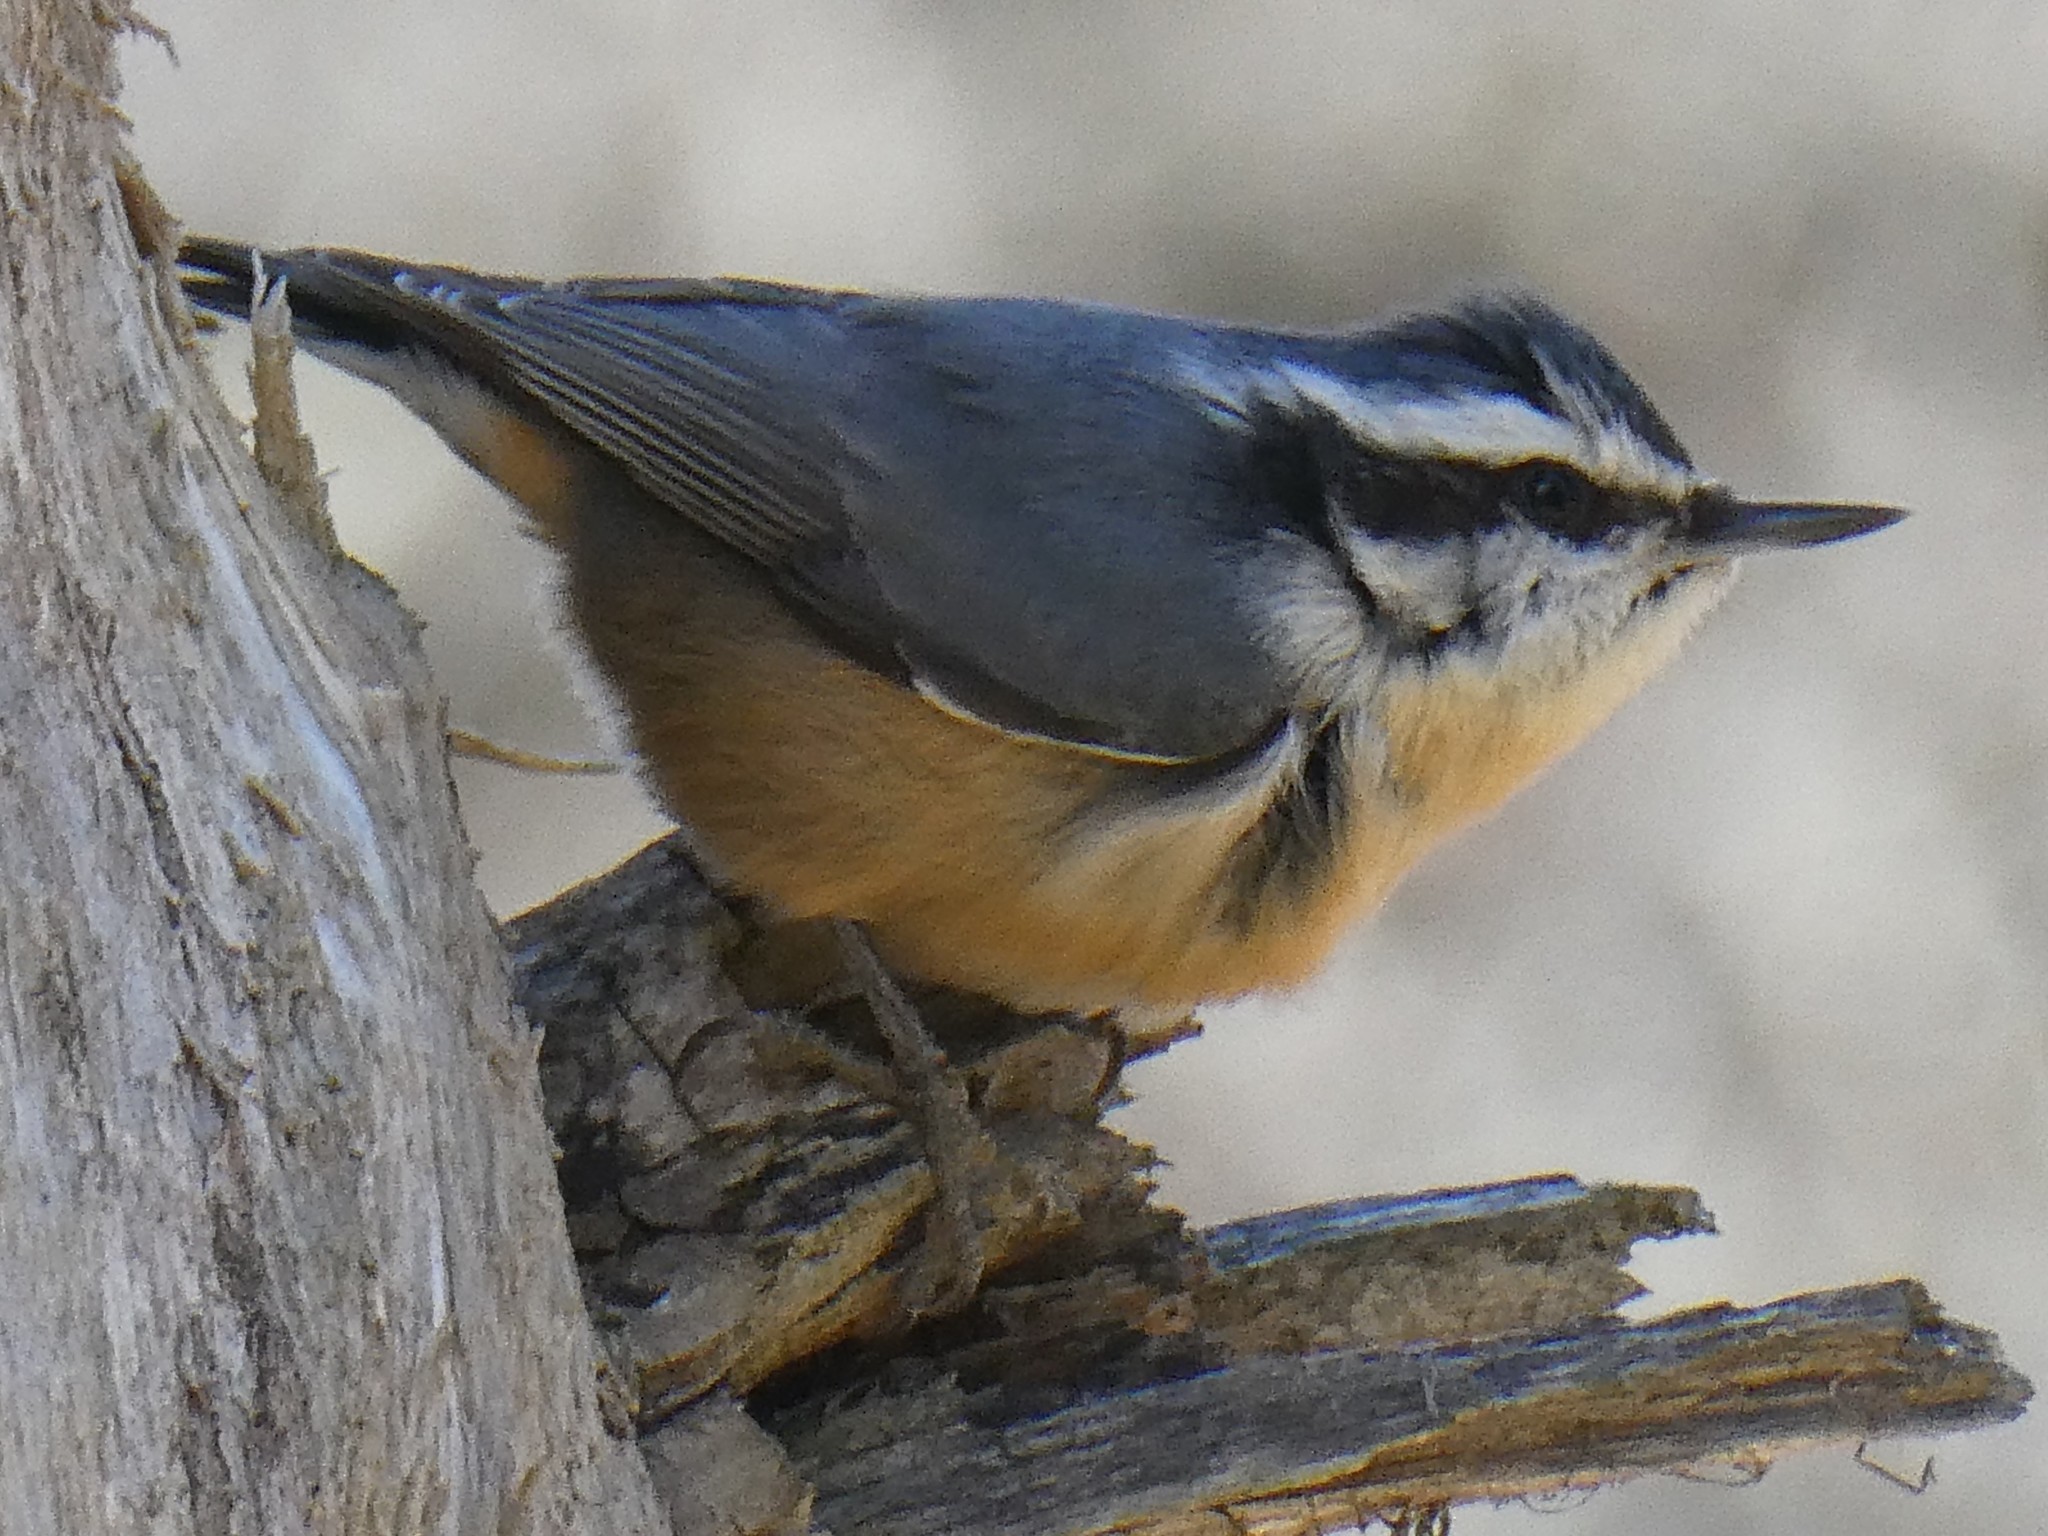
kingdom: Animalia
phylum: Chordata
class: Aves
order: Passeriformes
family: Sittidae
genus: Sitta
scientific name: Sitta canadensis
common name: Red-breasted nuthatch
